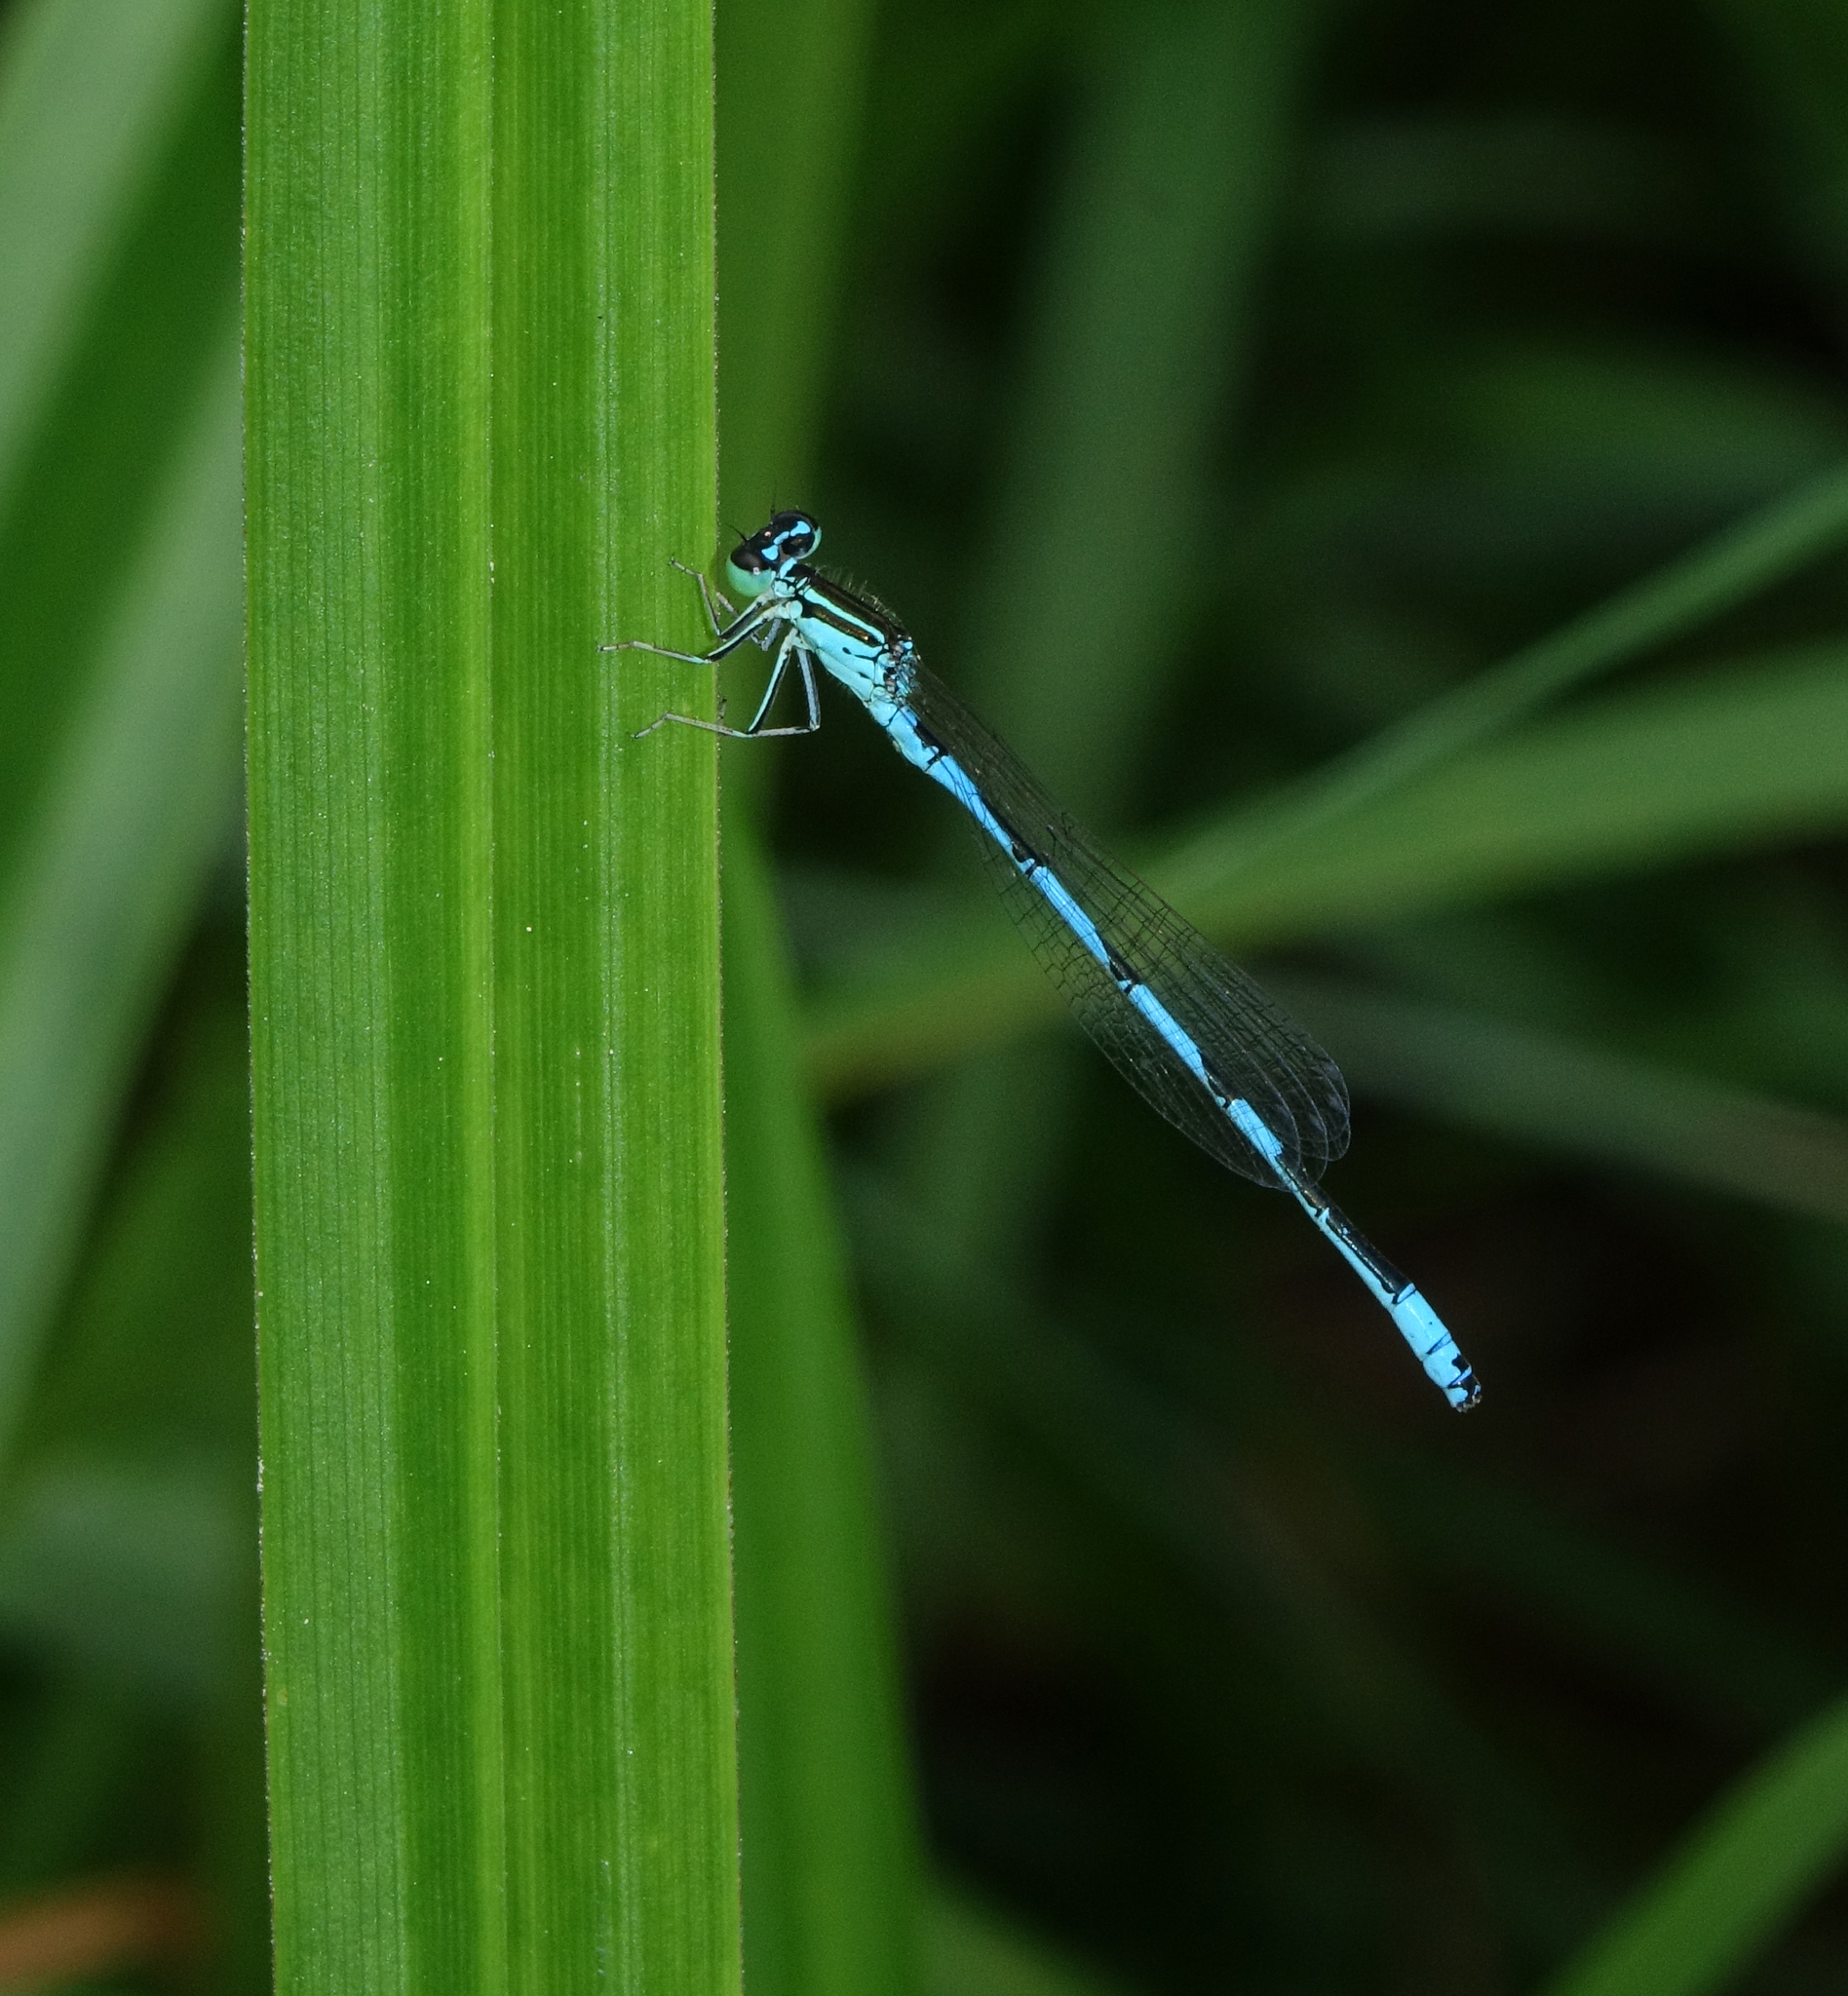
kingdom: Animalia
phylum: Arthropoda
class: Insecta
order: Odonata
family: Coenagrionidae
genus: Coenagrion
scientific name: Coenagrion ecornutum
